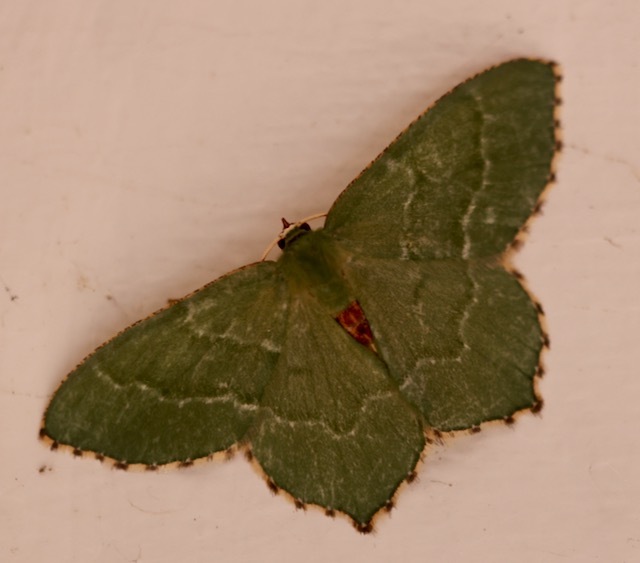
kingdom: Animalia
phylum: Arthropoda
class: Insecta
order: Lepidoptera
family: Geometridae
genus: Hemithea
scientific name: Hemithea aestivaria
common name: Common emerald
